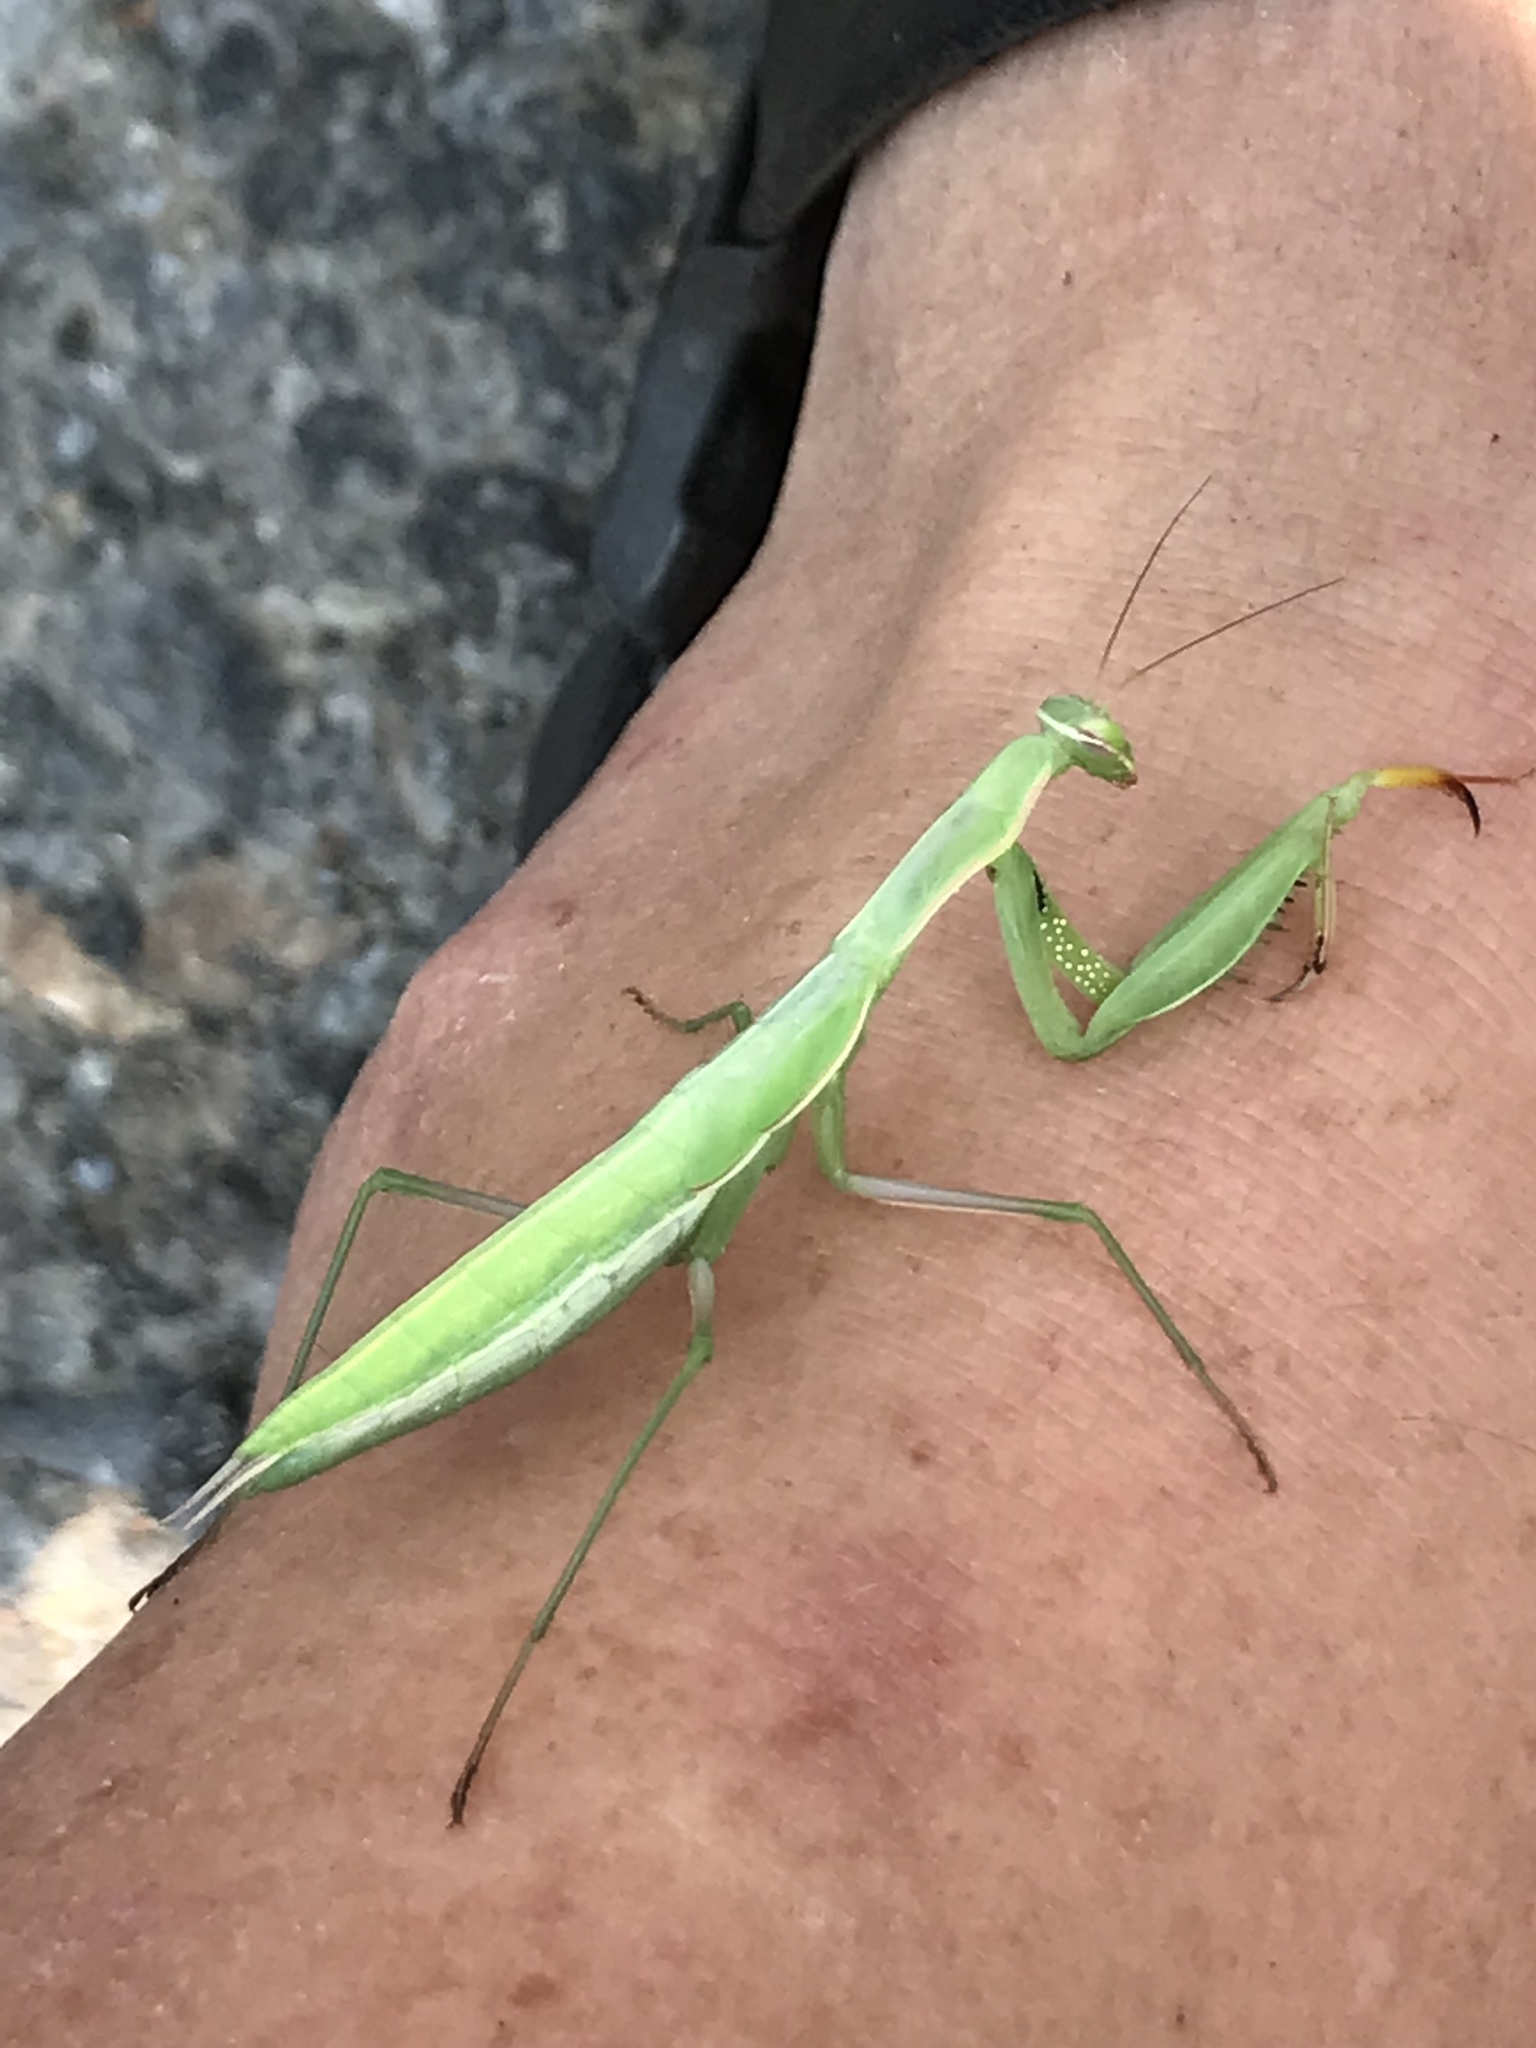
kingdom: Animalia
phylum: Arthropoda
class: Insecta
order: Mantodea
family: Mantidae
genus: Mantis
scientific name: Mantis religiosa
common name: Praying mantis
